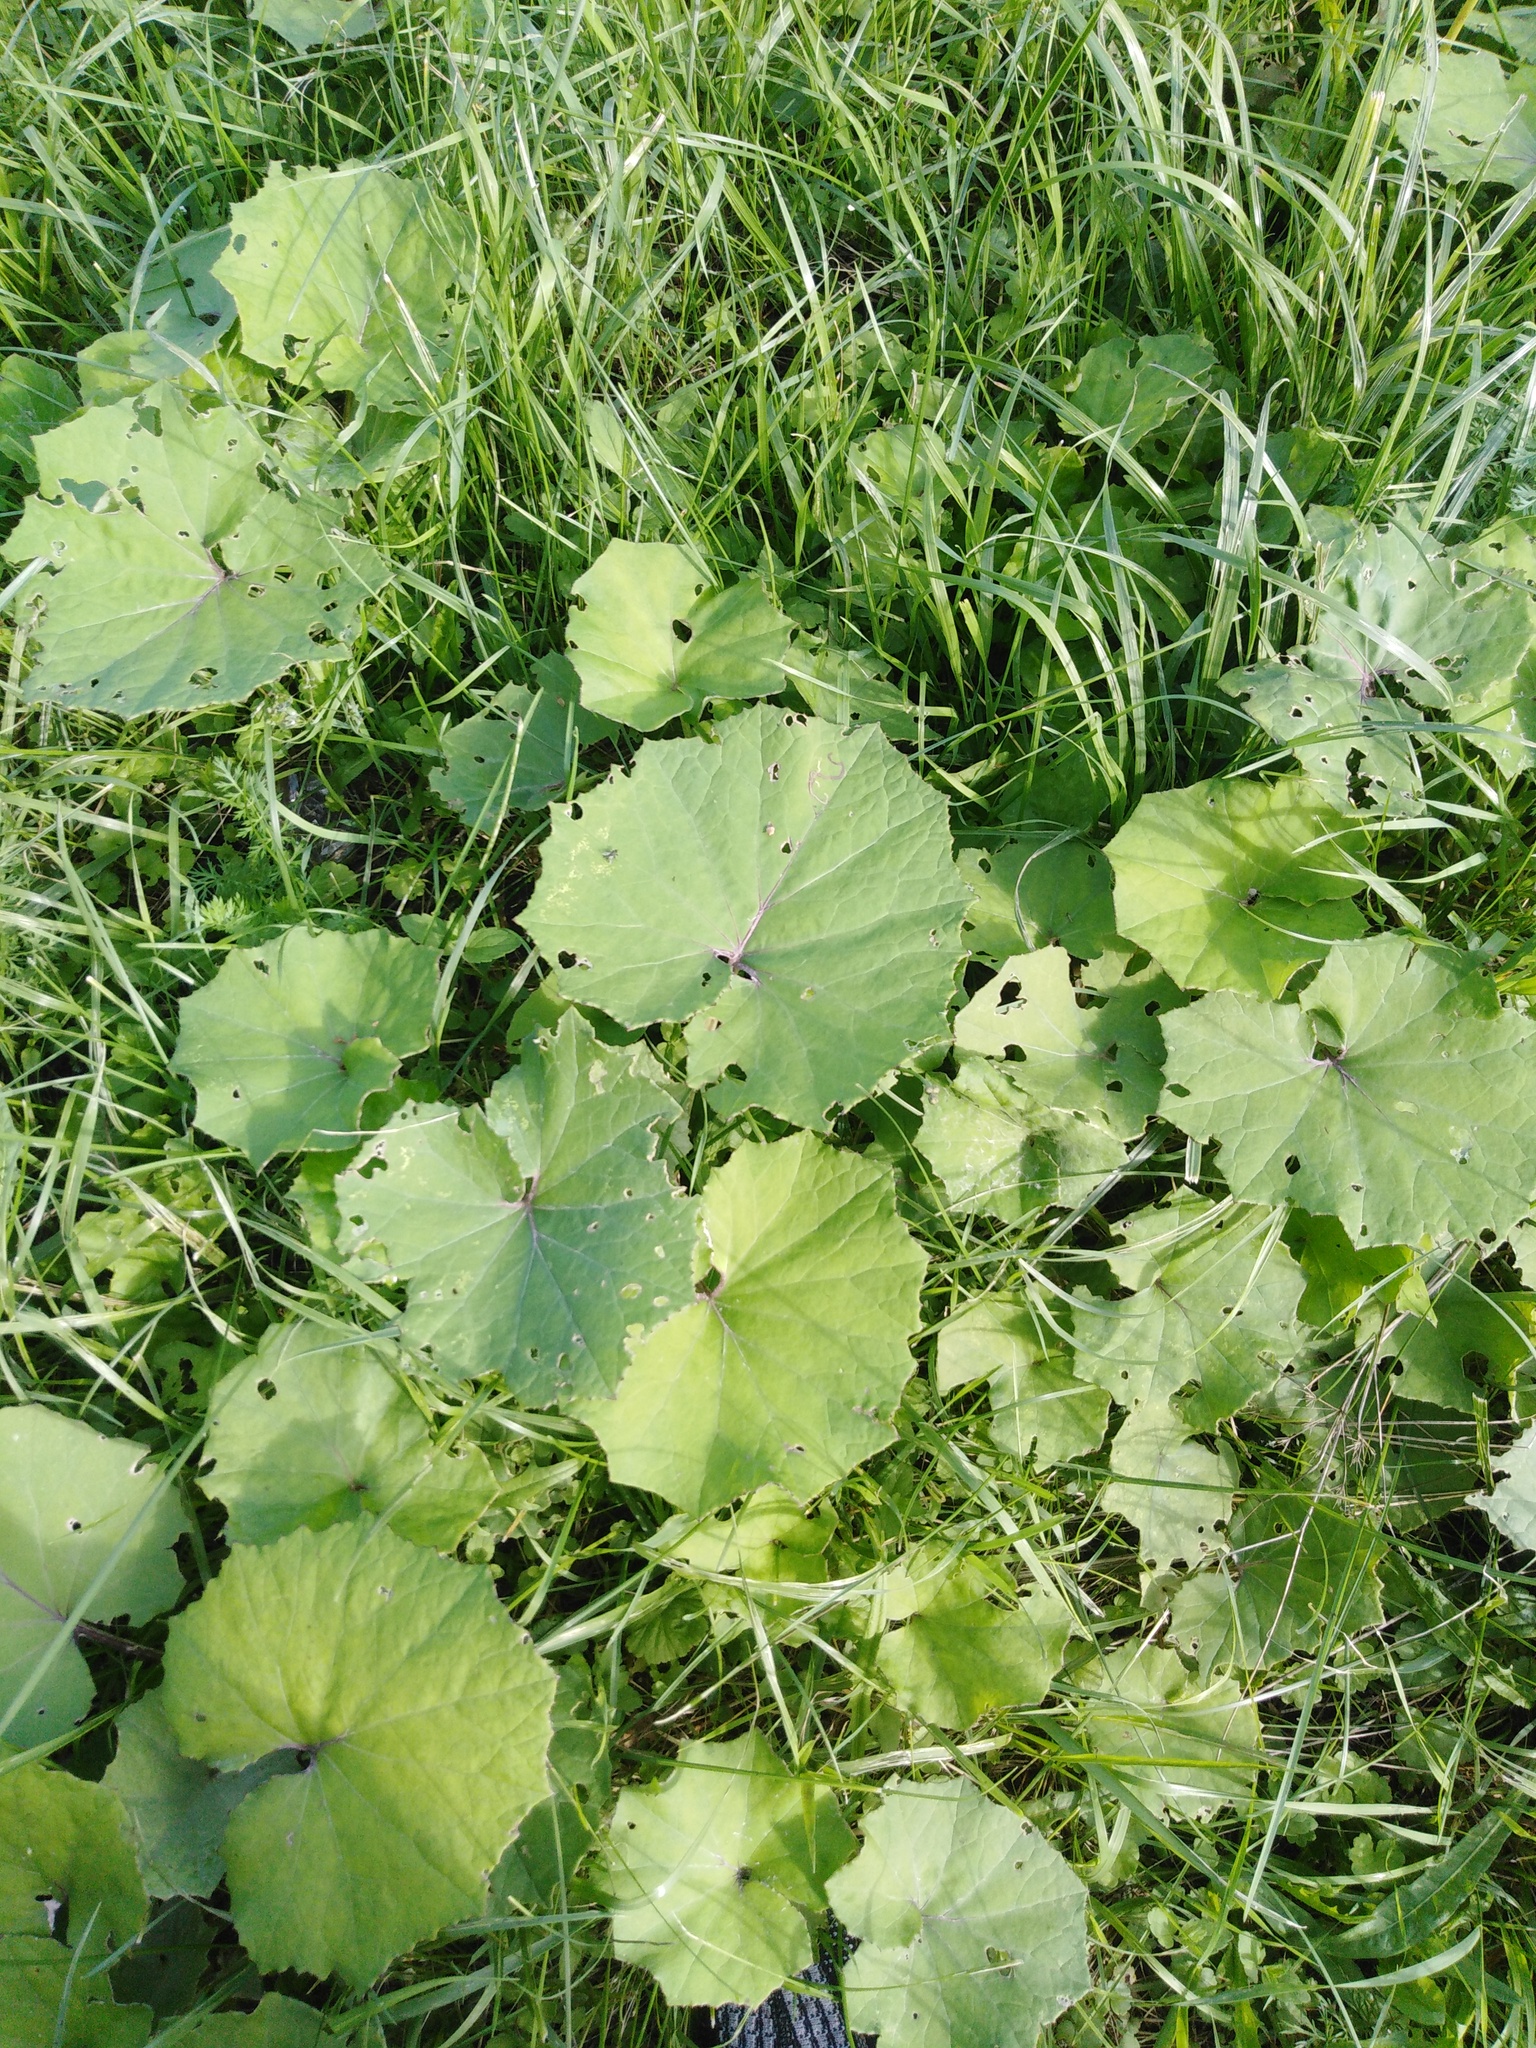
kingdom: Plantae
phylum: Tracheophyta
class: Magnoliopsida
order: Asterales
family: Asteraceae
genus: Tussilago
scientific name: Tussilago farfara
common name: Coltsfoot
